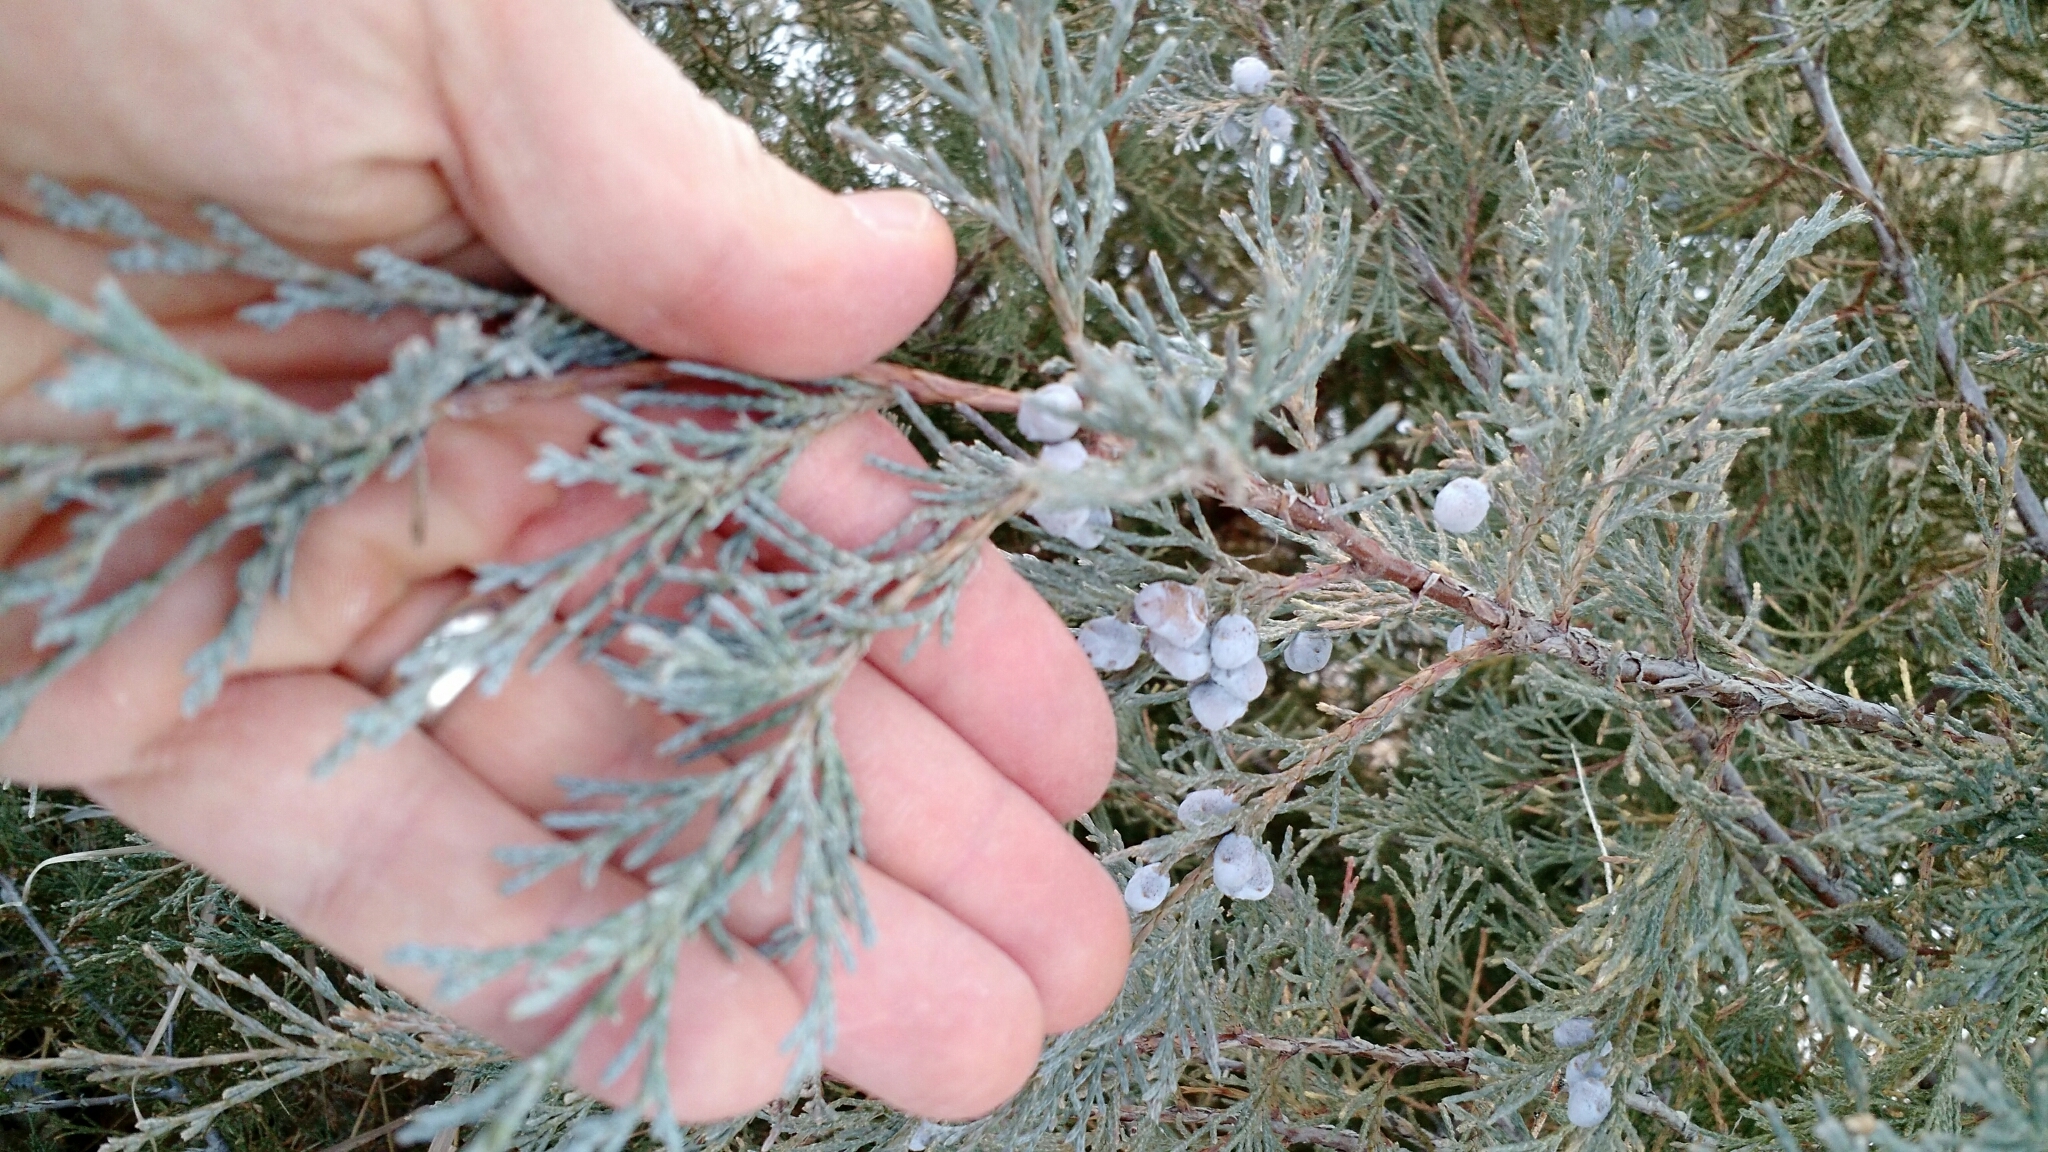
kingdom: Plantae
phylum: Tracheophyta
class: Pinopsida
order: Pinales
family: Cupressaceae
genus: Juniperus
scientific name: Juniperus scopulorum
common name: Rocky mountain juniper
